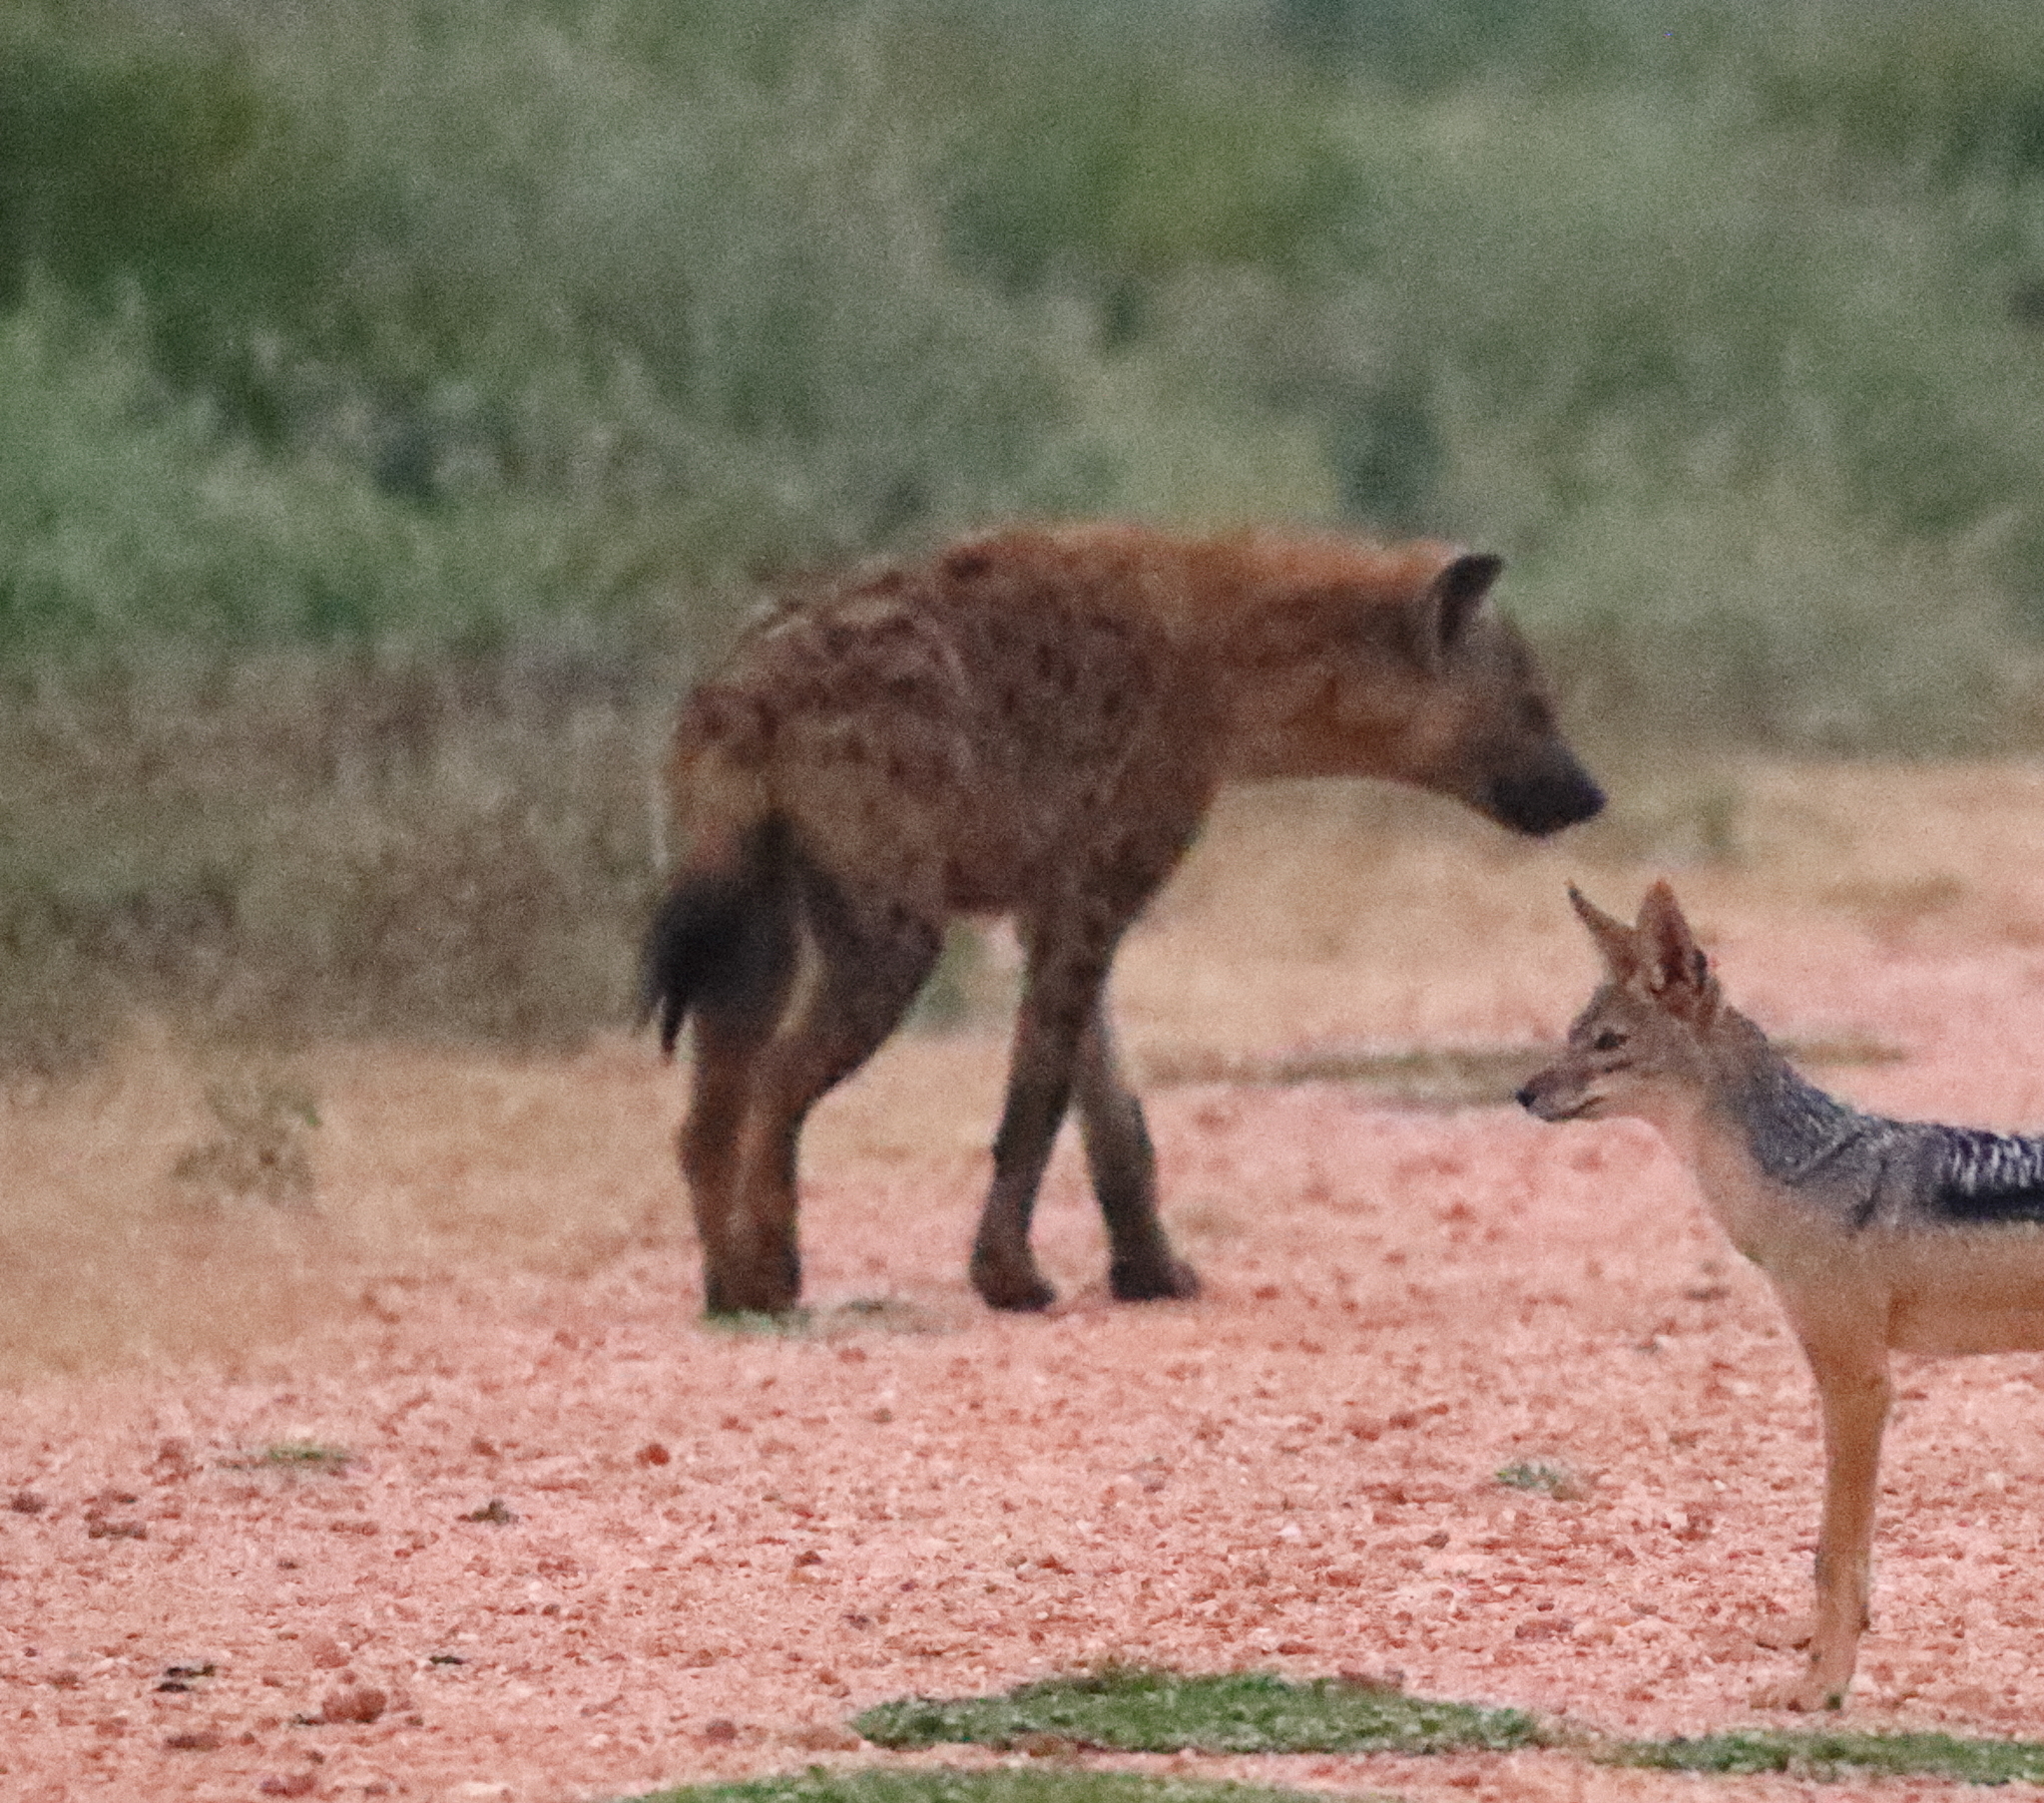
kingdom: Animalia
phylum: Chordata
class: Mammalia
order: Carnivora
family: Hyaenidae
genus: Crocuta
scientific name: Crocuta crocuta
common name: Spotted hyaena
